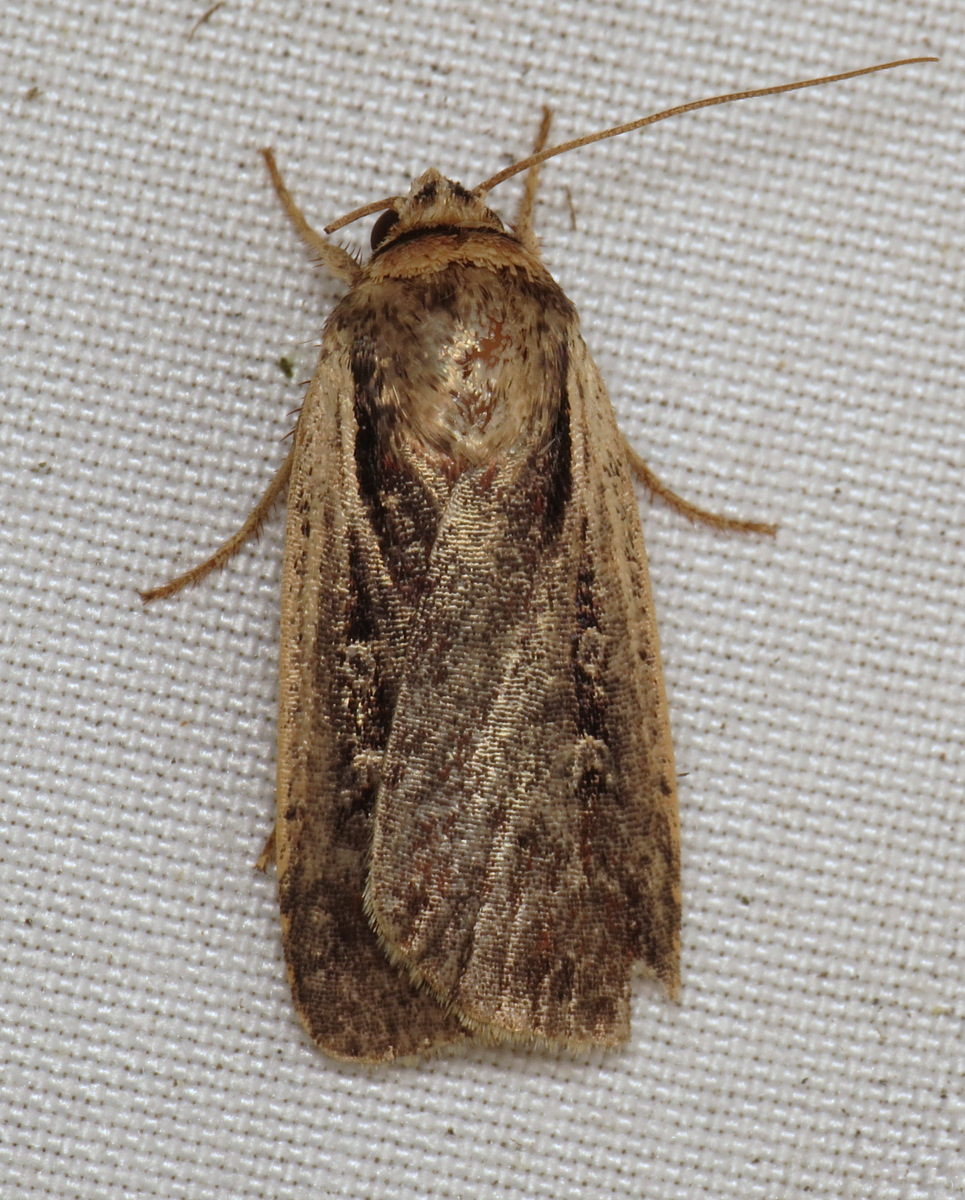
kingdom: Animalia
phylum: Arthropoda
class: Insecta
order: Lepidoptera
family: Noctuidae
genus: Ochropleura
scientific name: Ochropleura implecta
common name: Flame-shouldered dart
